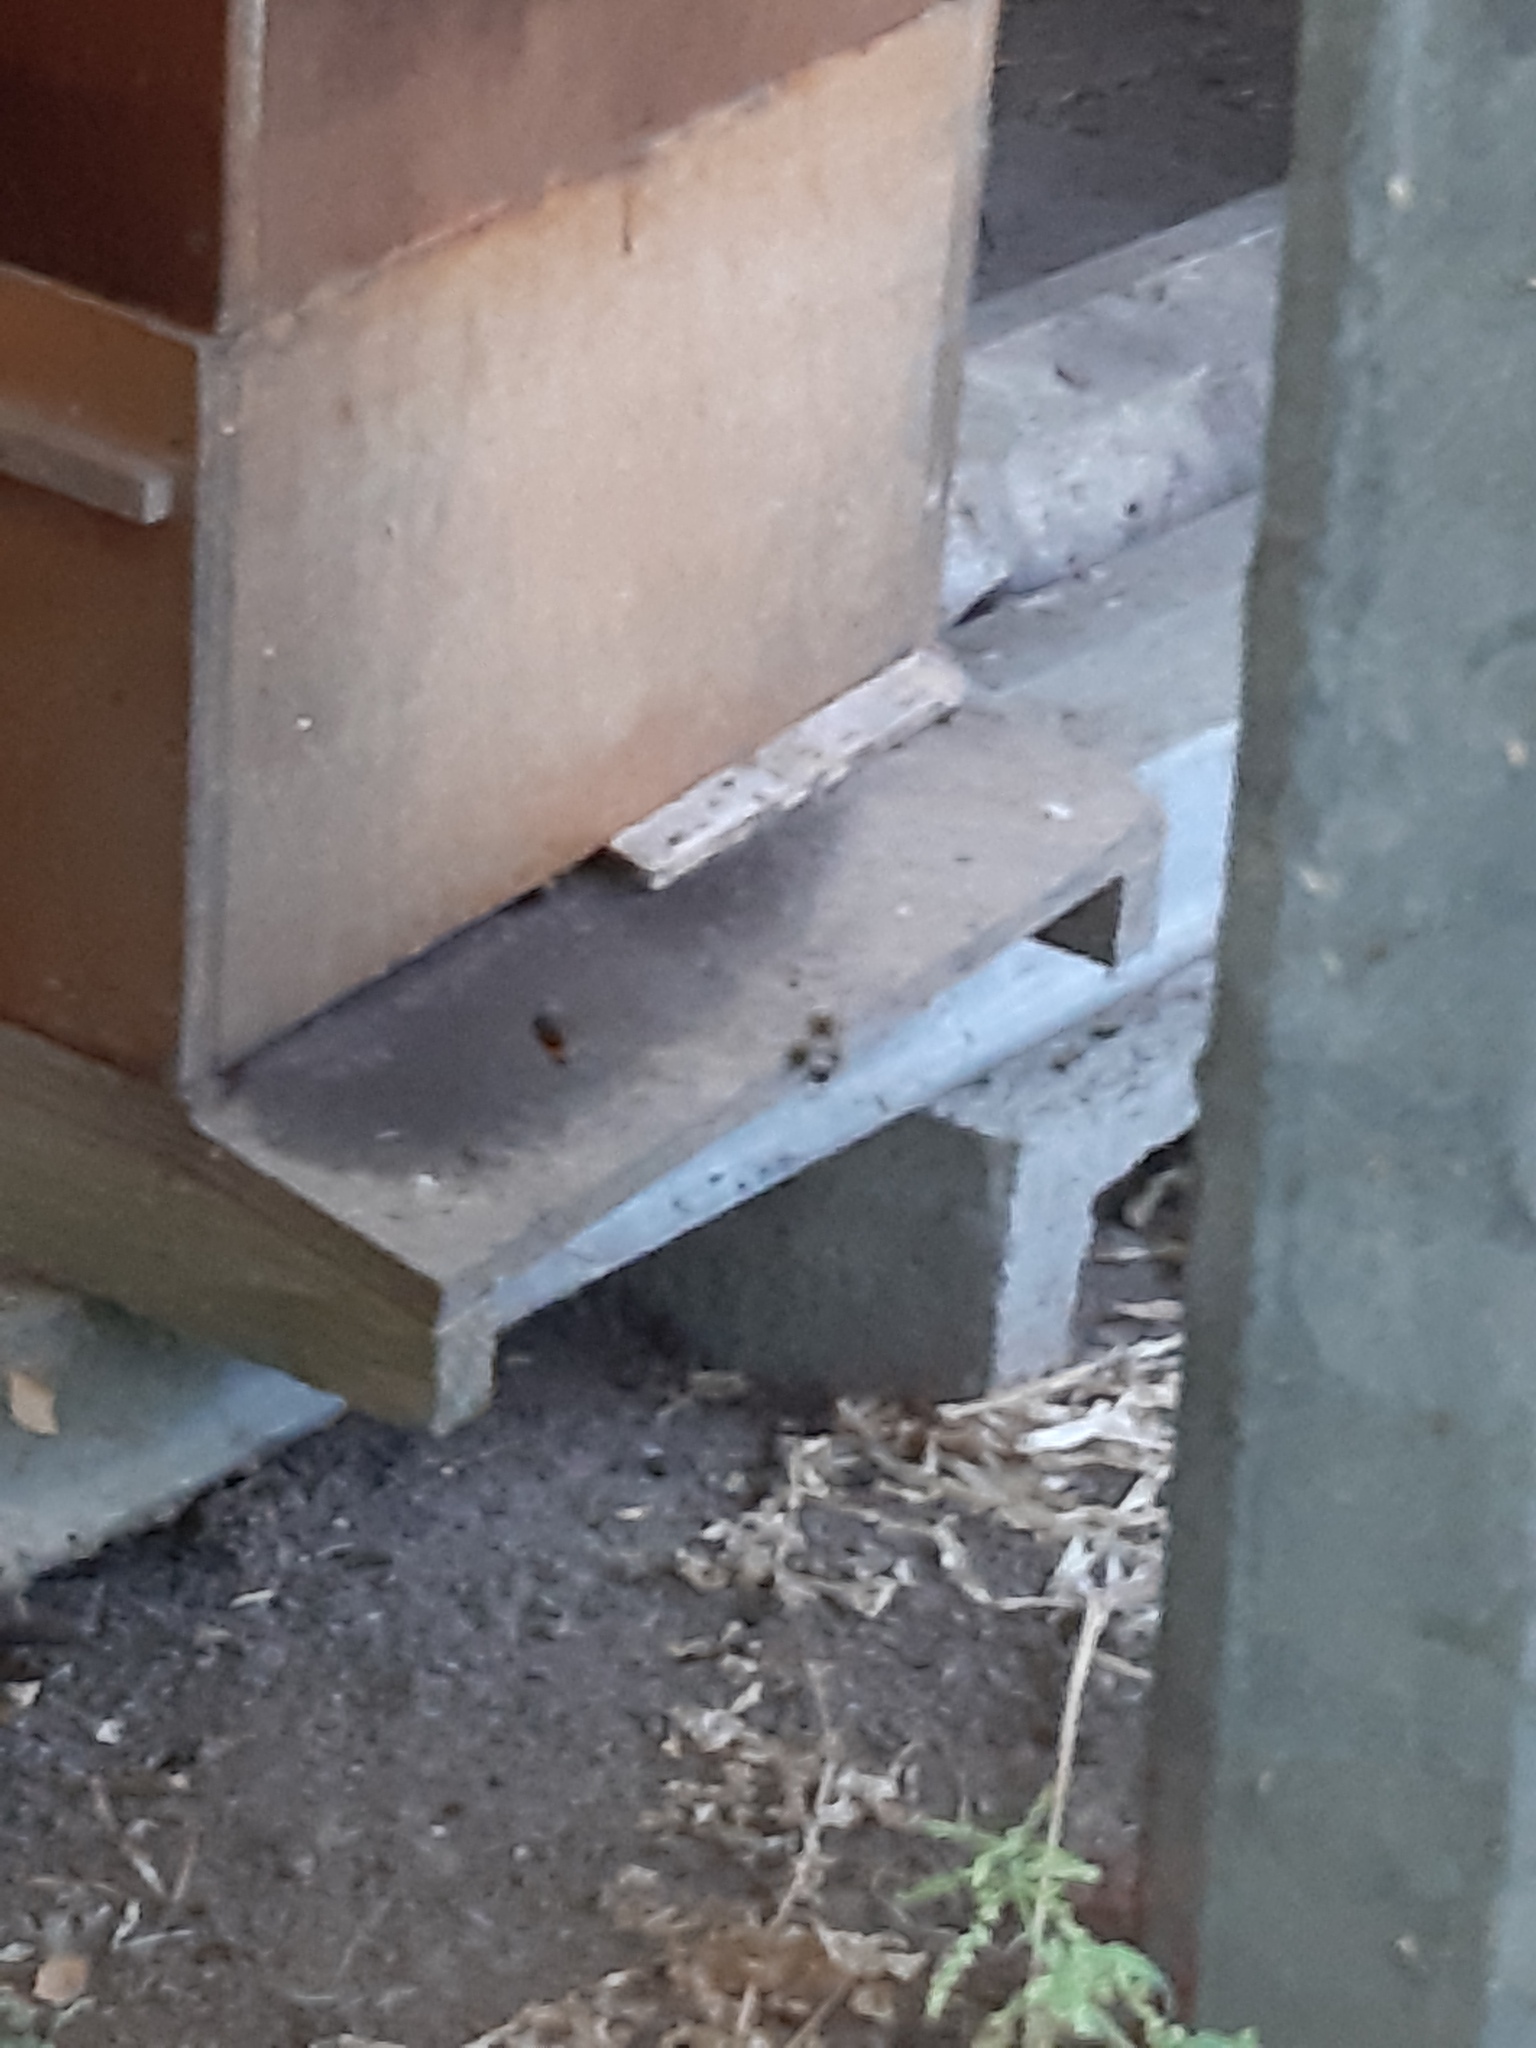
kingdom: Animalia
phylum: Arthropoda
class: Insecta
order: Hymenoptera
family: Vespidae
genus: Vespa
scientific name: Vespa velutina
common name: Asian hornet
